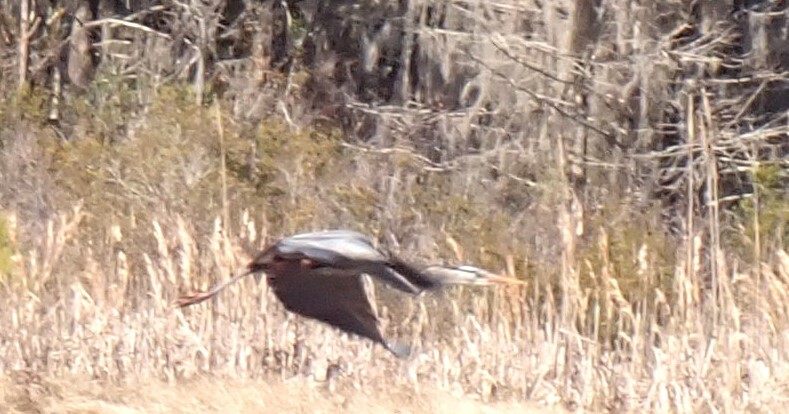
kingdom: Animalia
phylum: Chordata
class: Aves
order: Pelecaniformes
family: Ardeidae
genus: Ardea
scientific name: Ardea herodias
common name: Great blue heron
